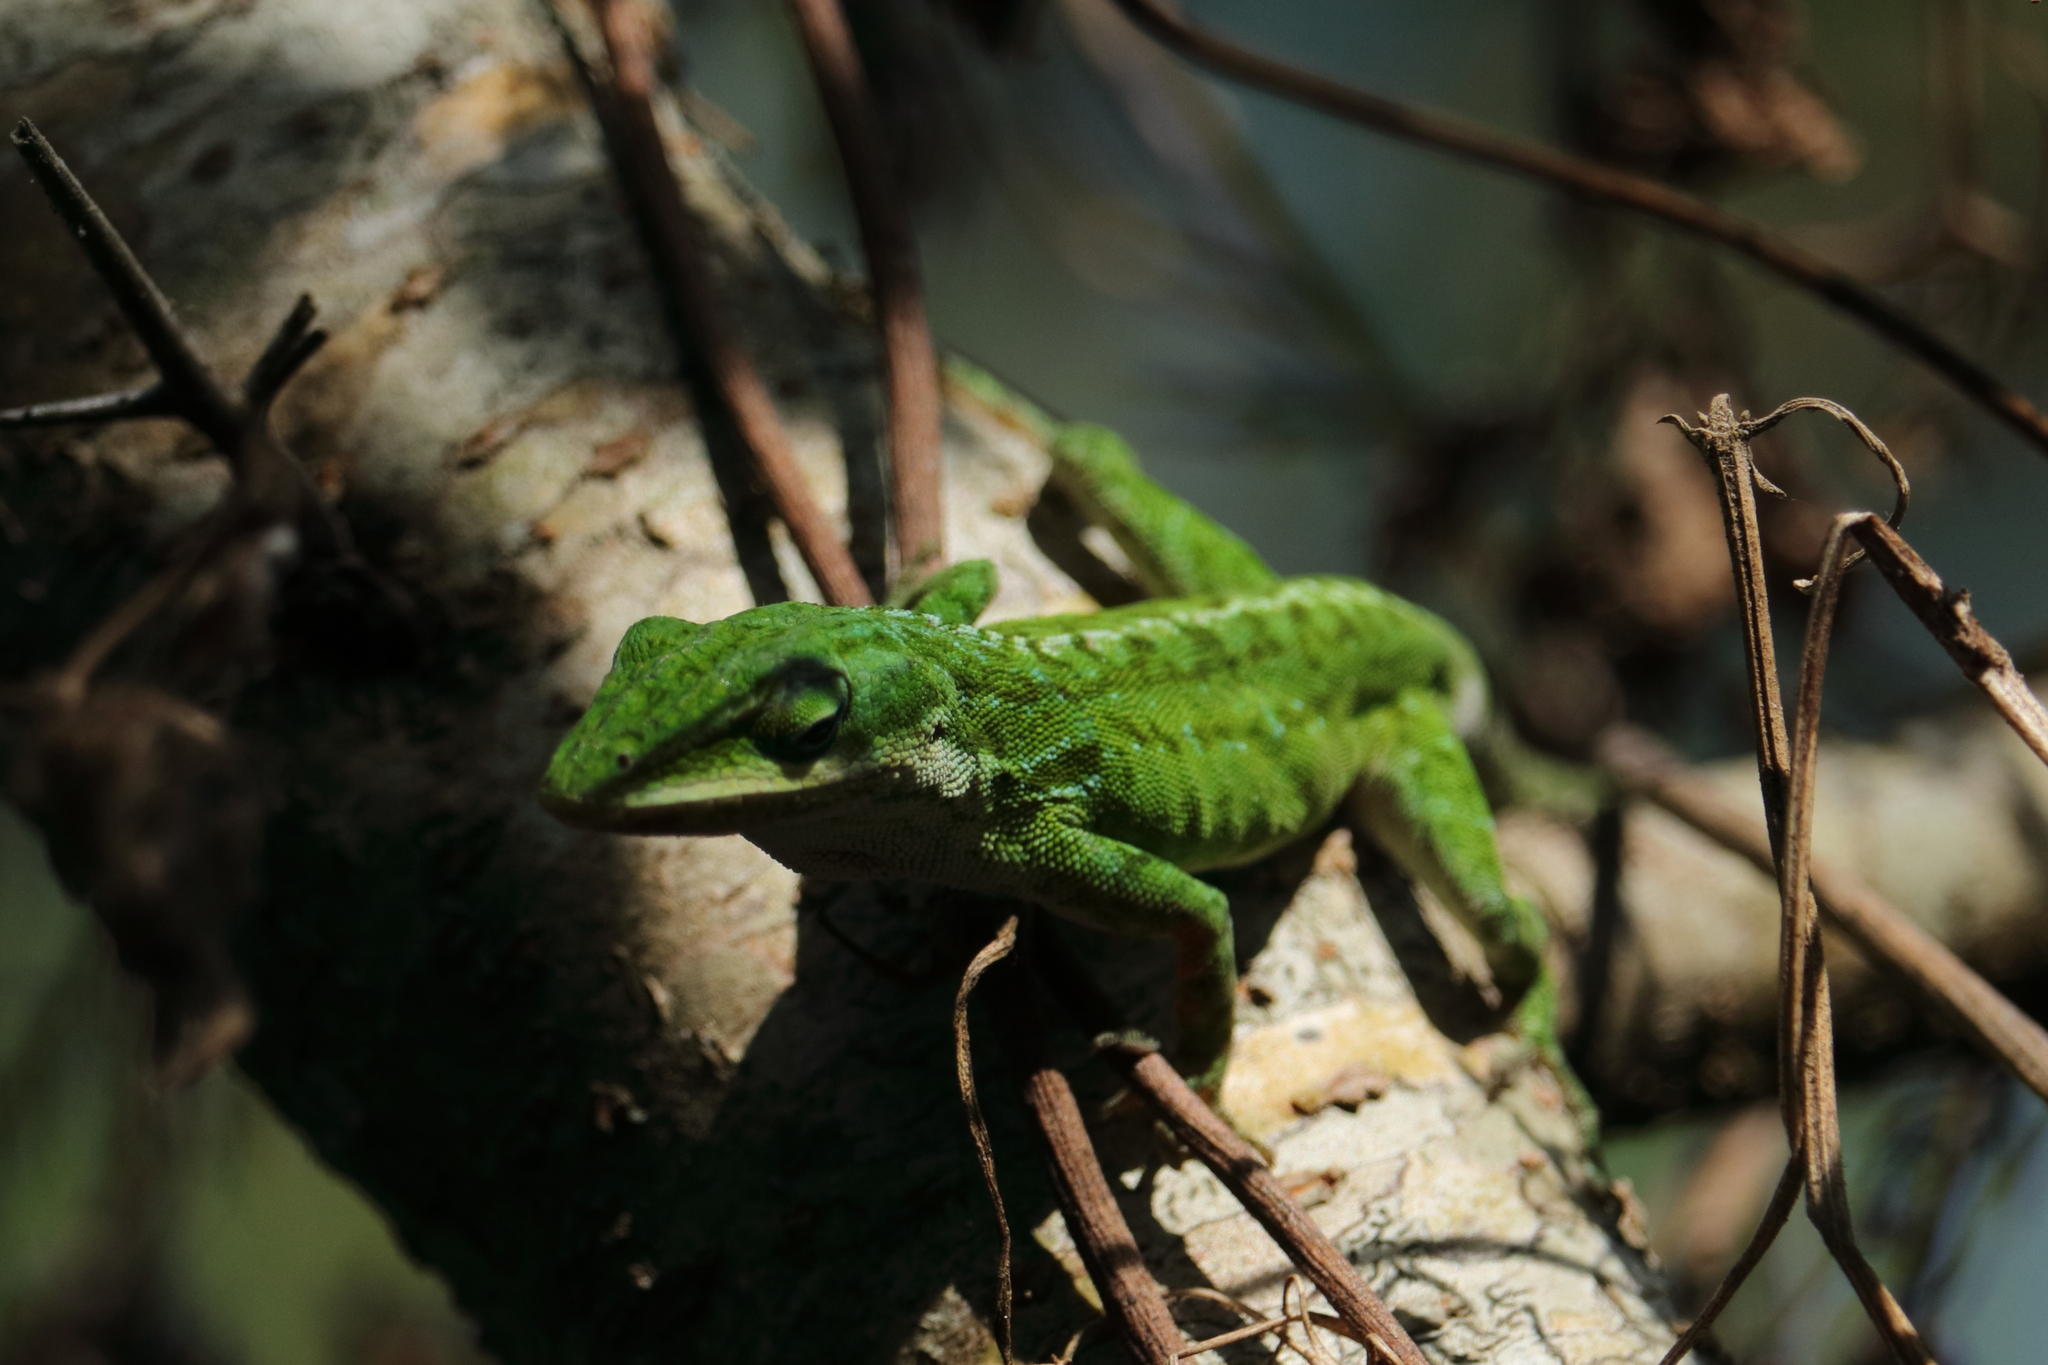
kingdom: Animalia
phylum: Chordata
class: Squamata
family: Dactyloidae
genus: Anolis
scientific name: Anolis carolinensis
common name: Green anole
